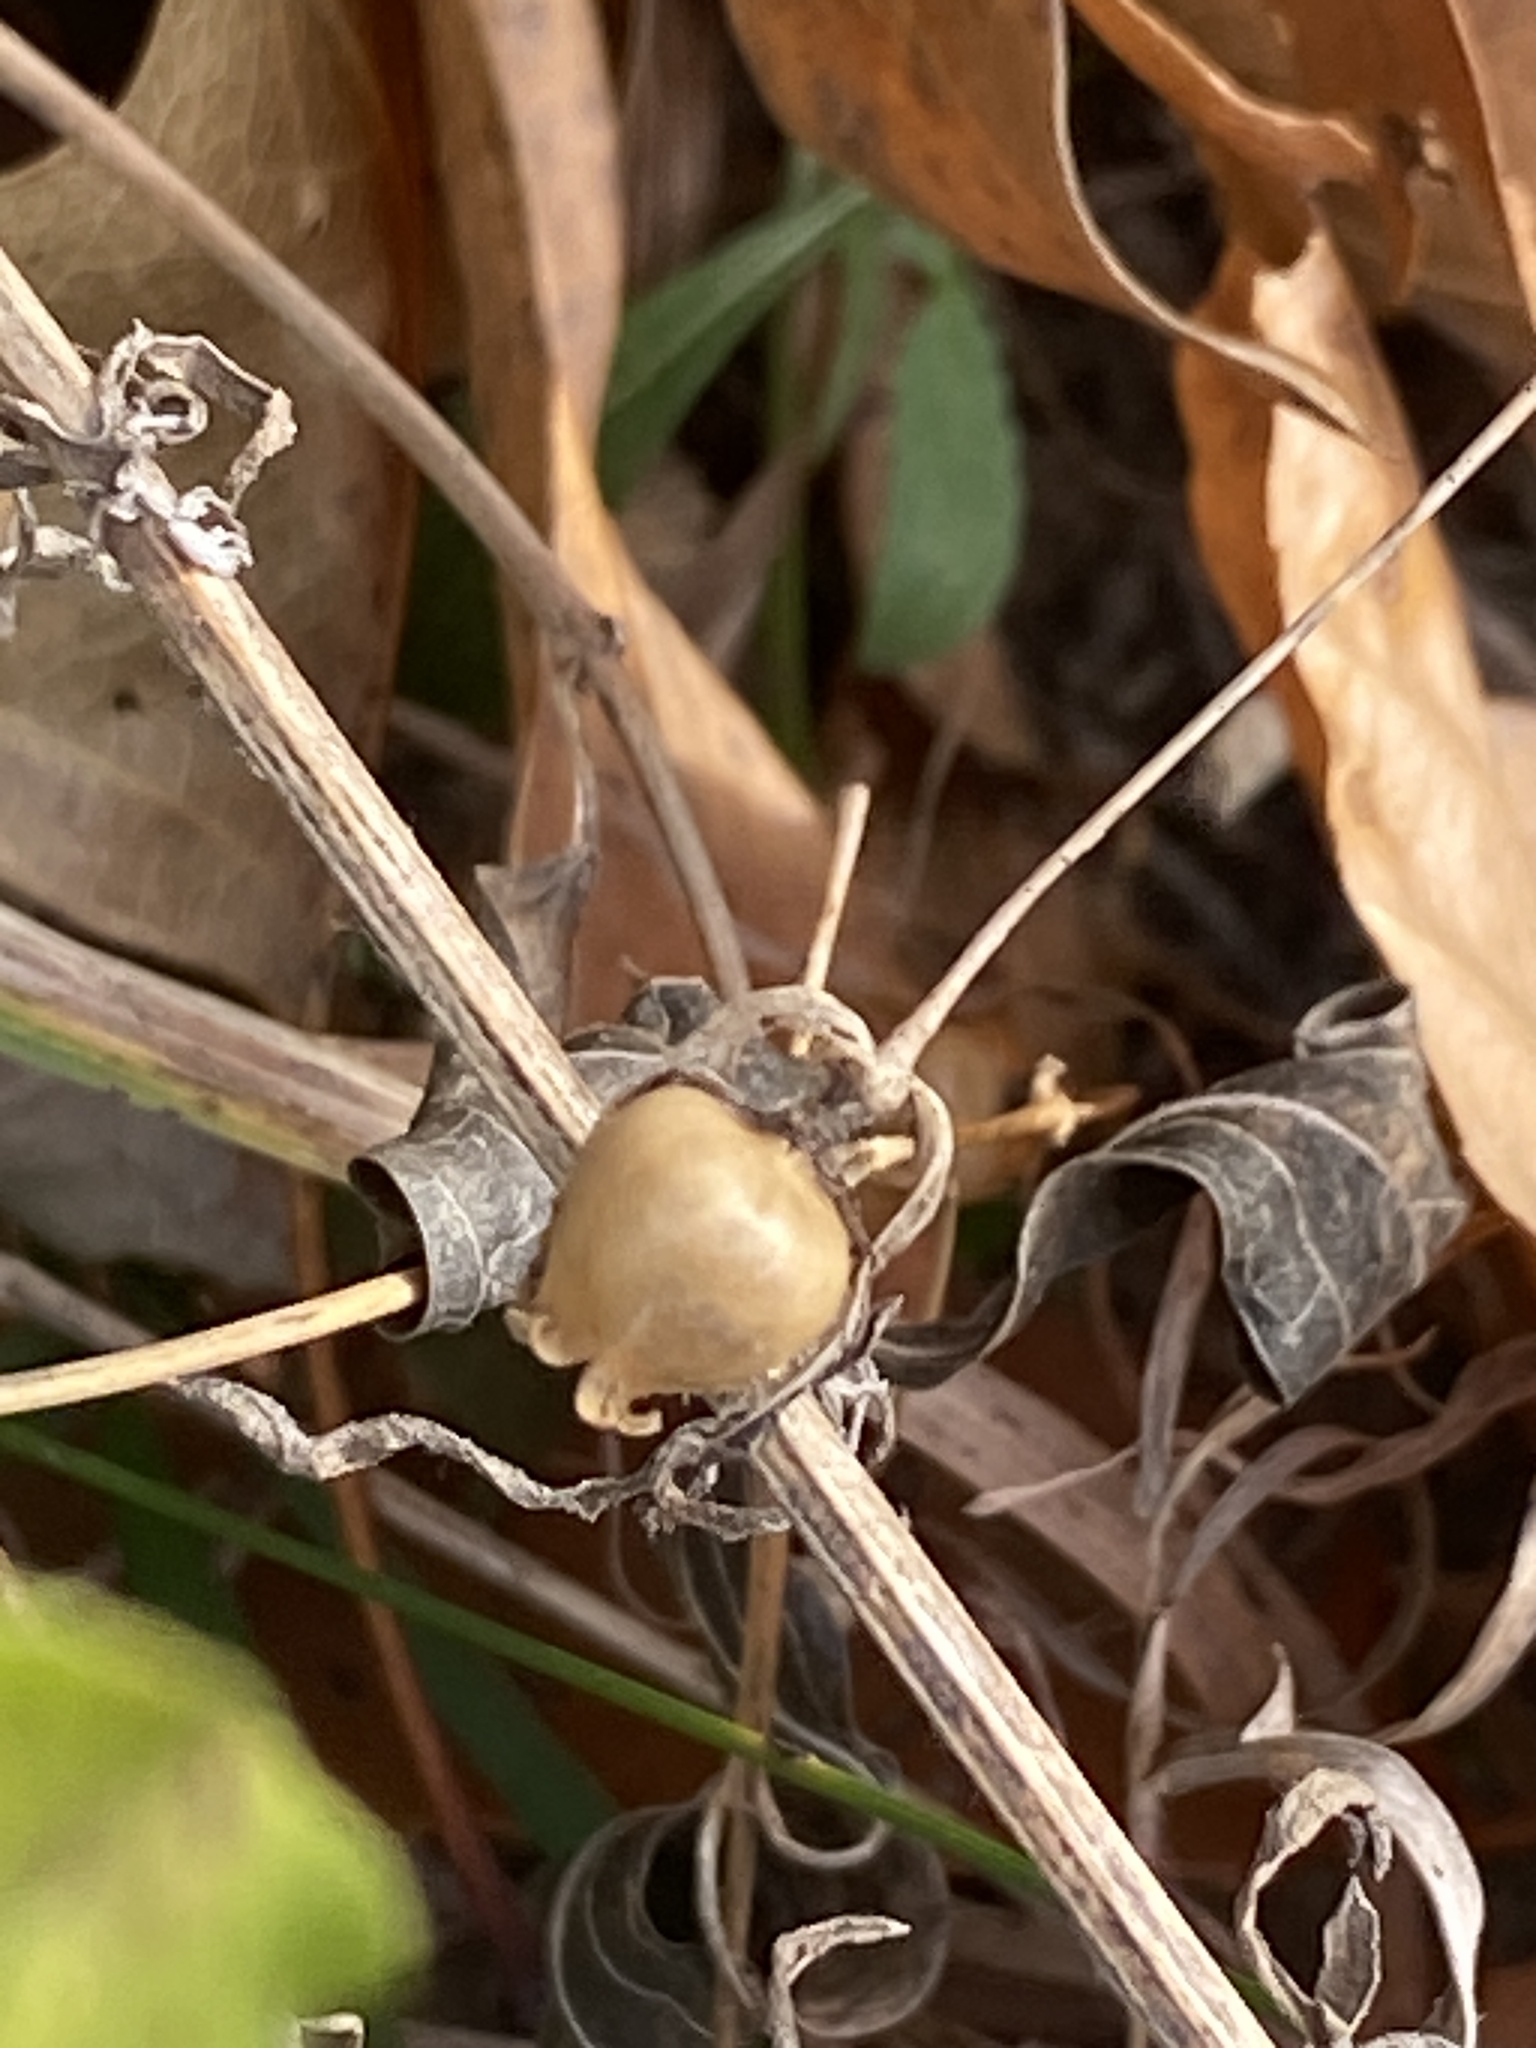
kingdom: Plantae
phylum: Tracheophyta
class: Magnoliopsida
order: Caryophyllales
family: Caryophyllaceae
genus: Silene
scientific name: Silene vulgaris
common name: Bladder campion
